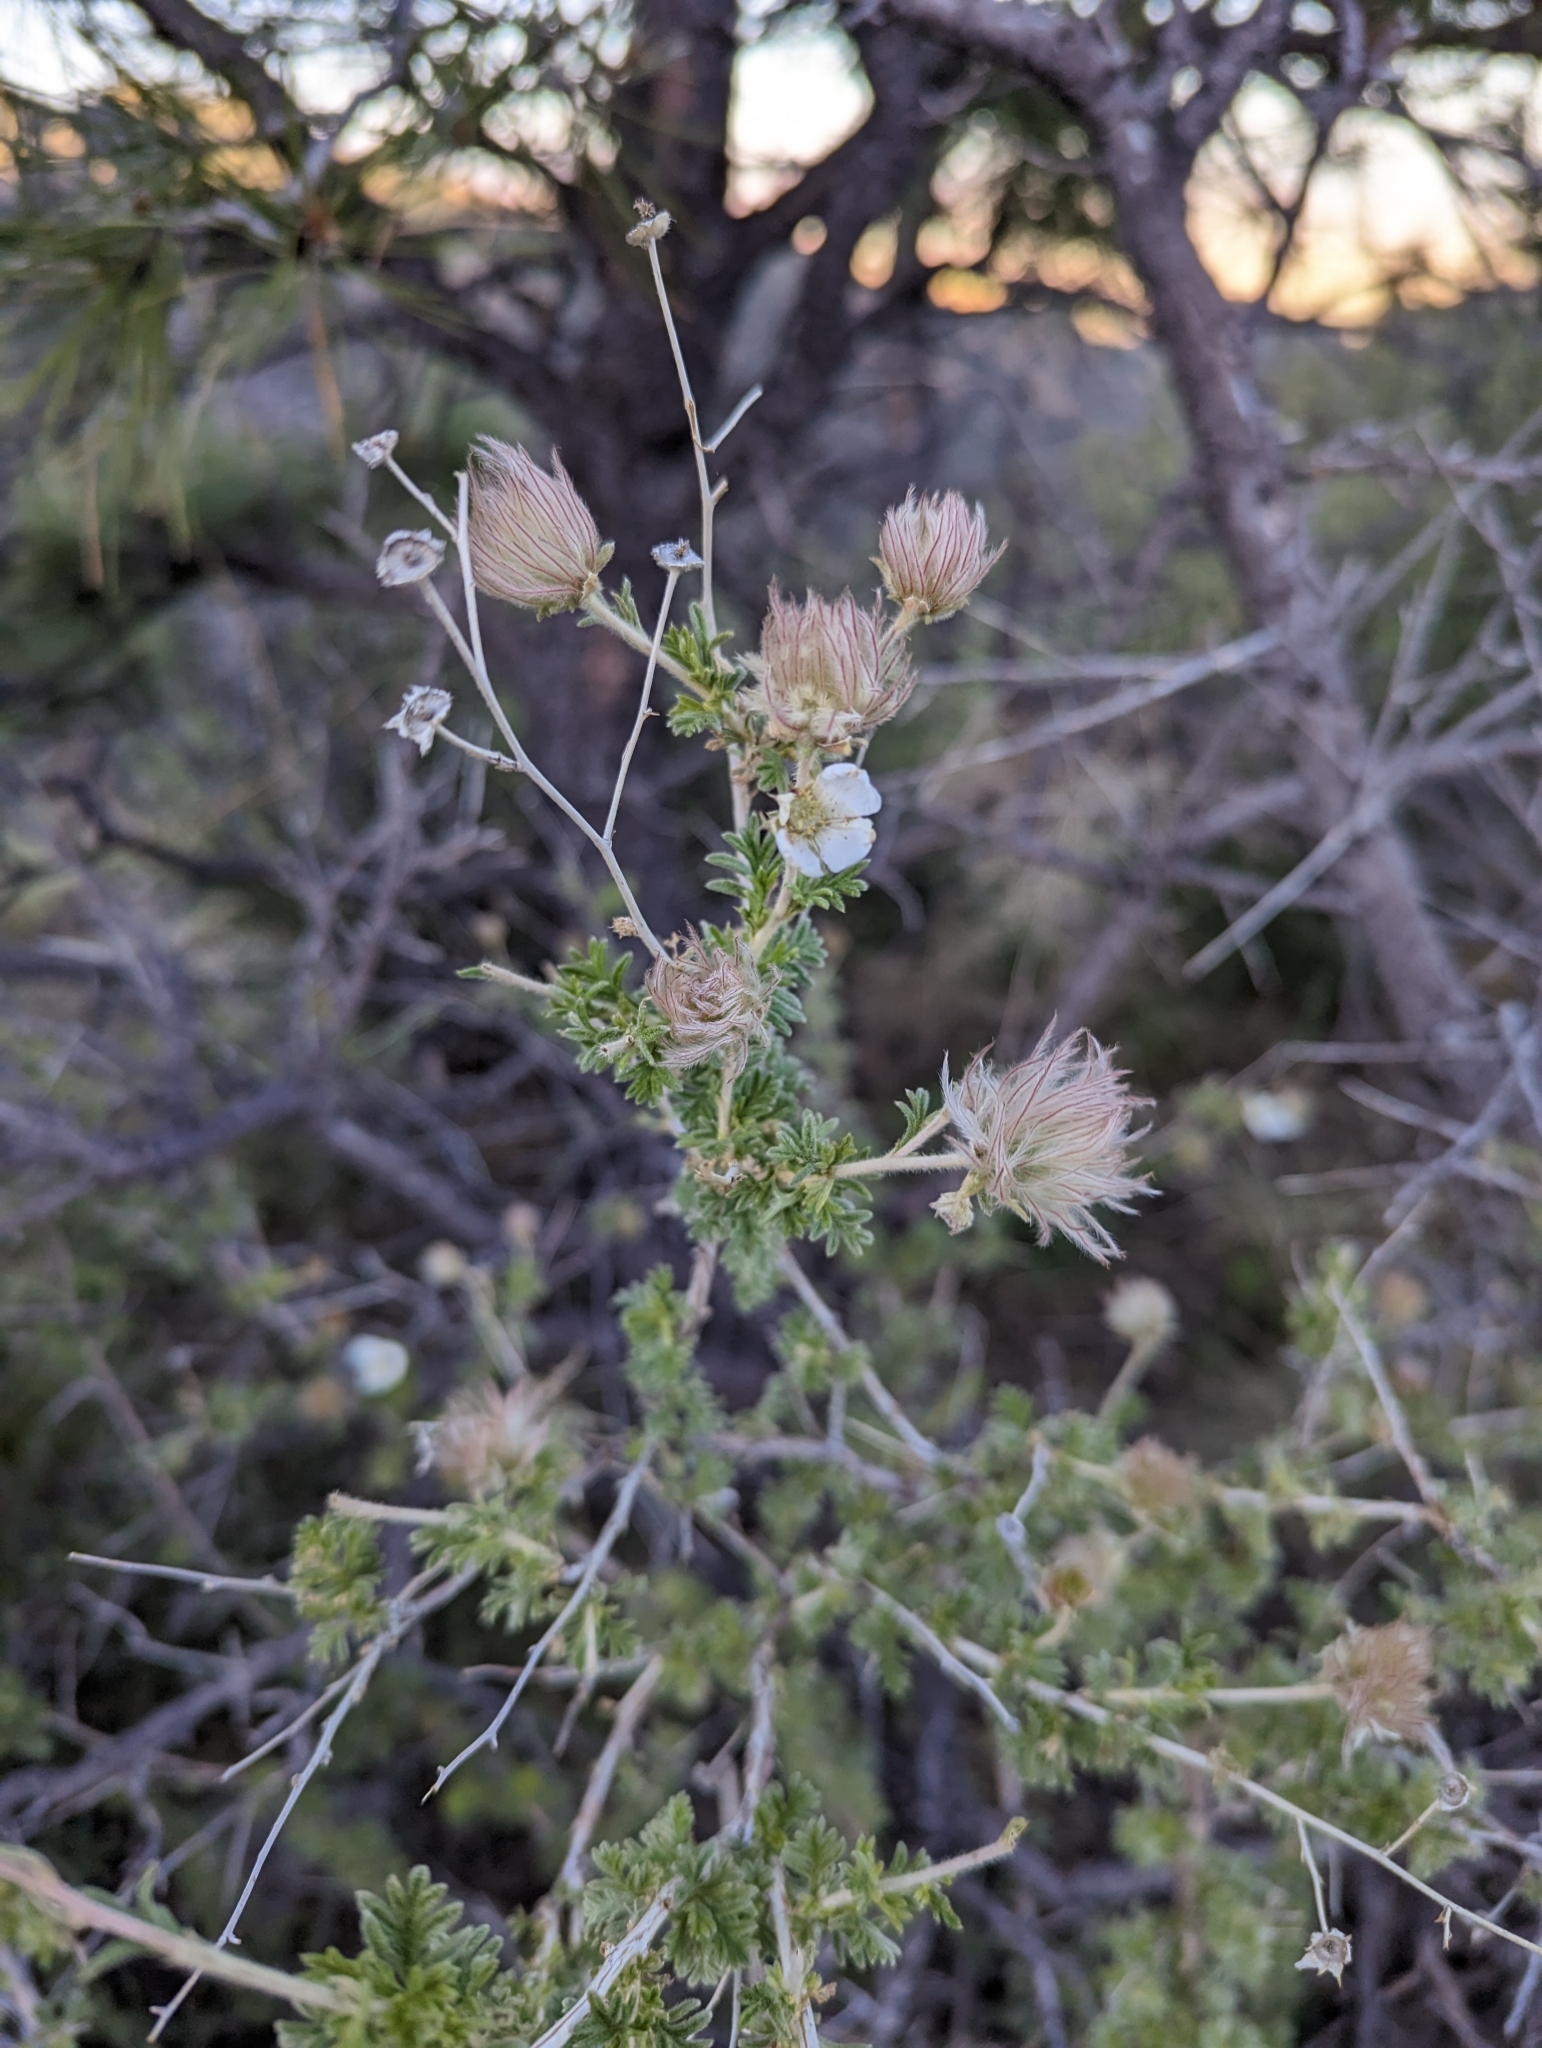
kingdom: Plantae
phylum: Tracheophyta
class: Magnoliopsida
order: Rosales
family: Rosaceae
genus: Fallugia
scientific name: Fallugia paradoxa
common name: Apache-plume
